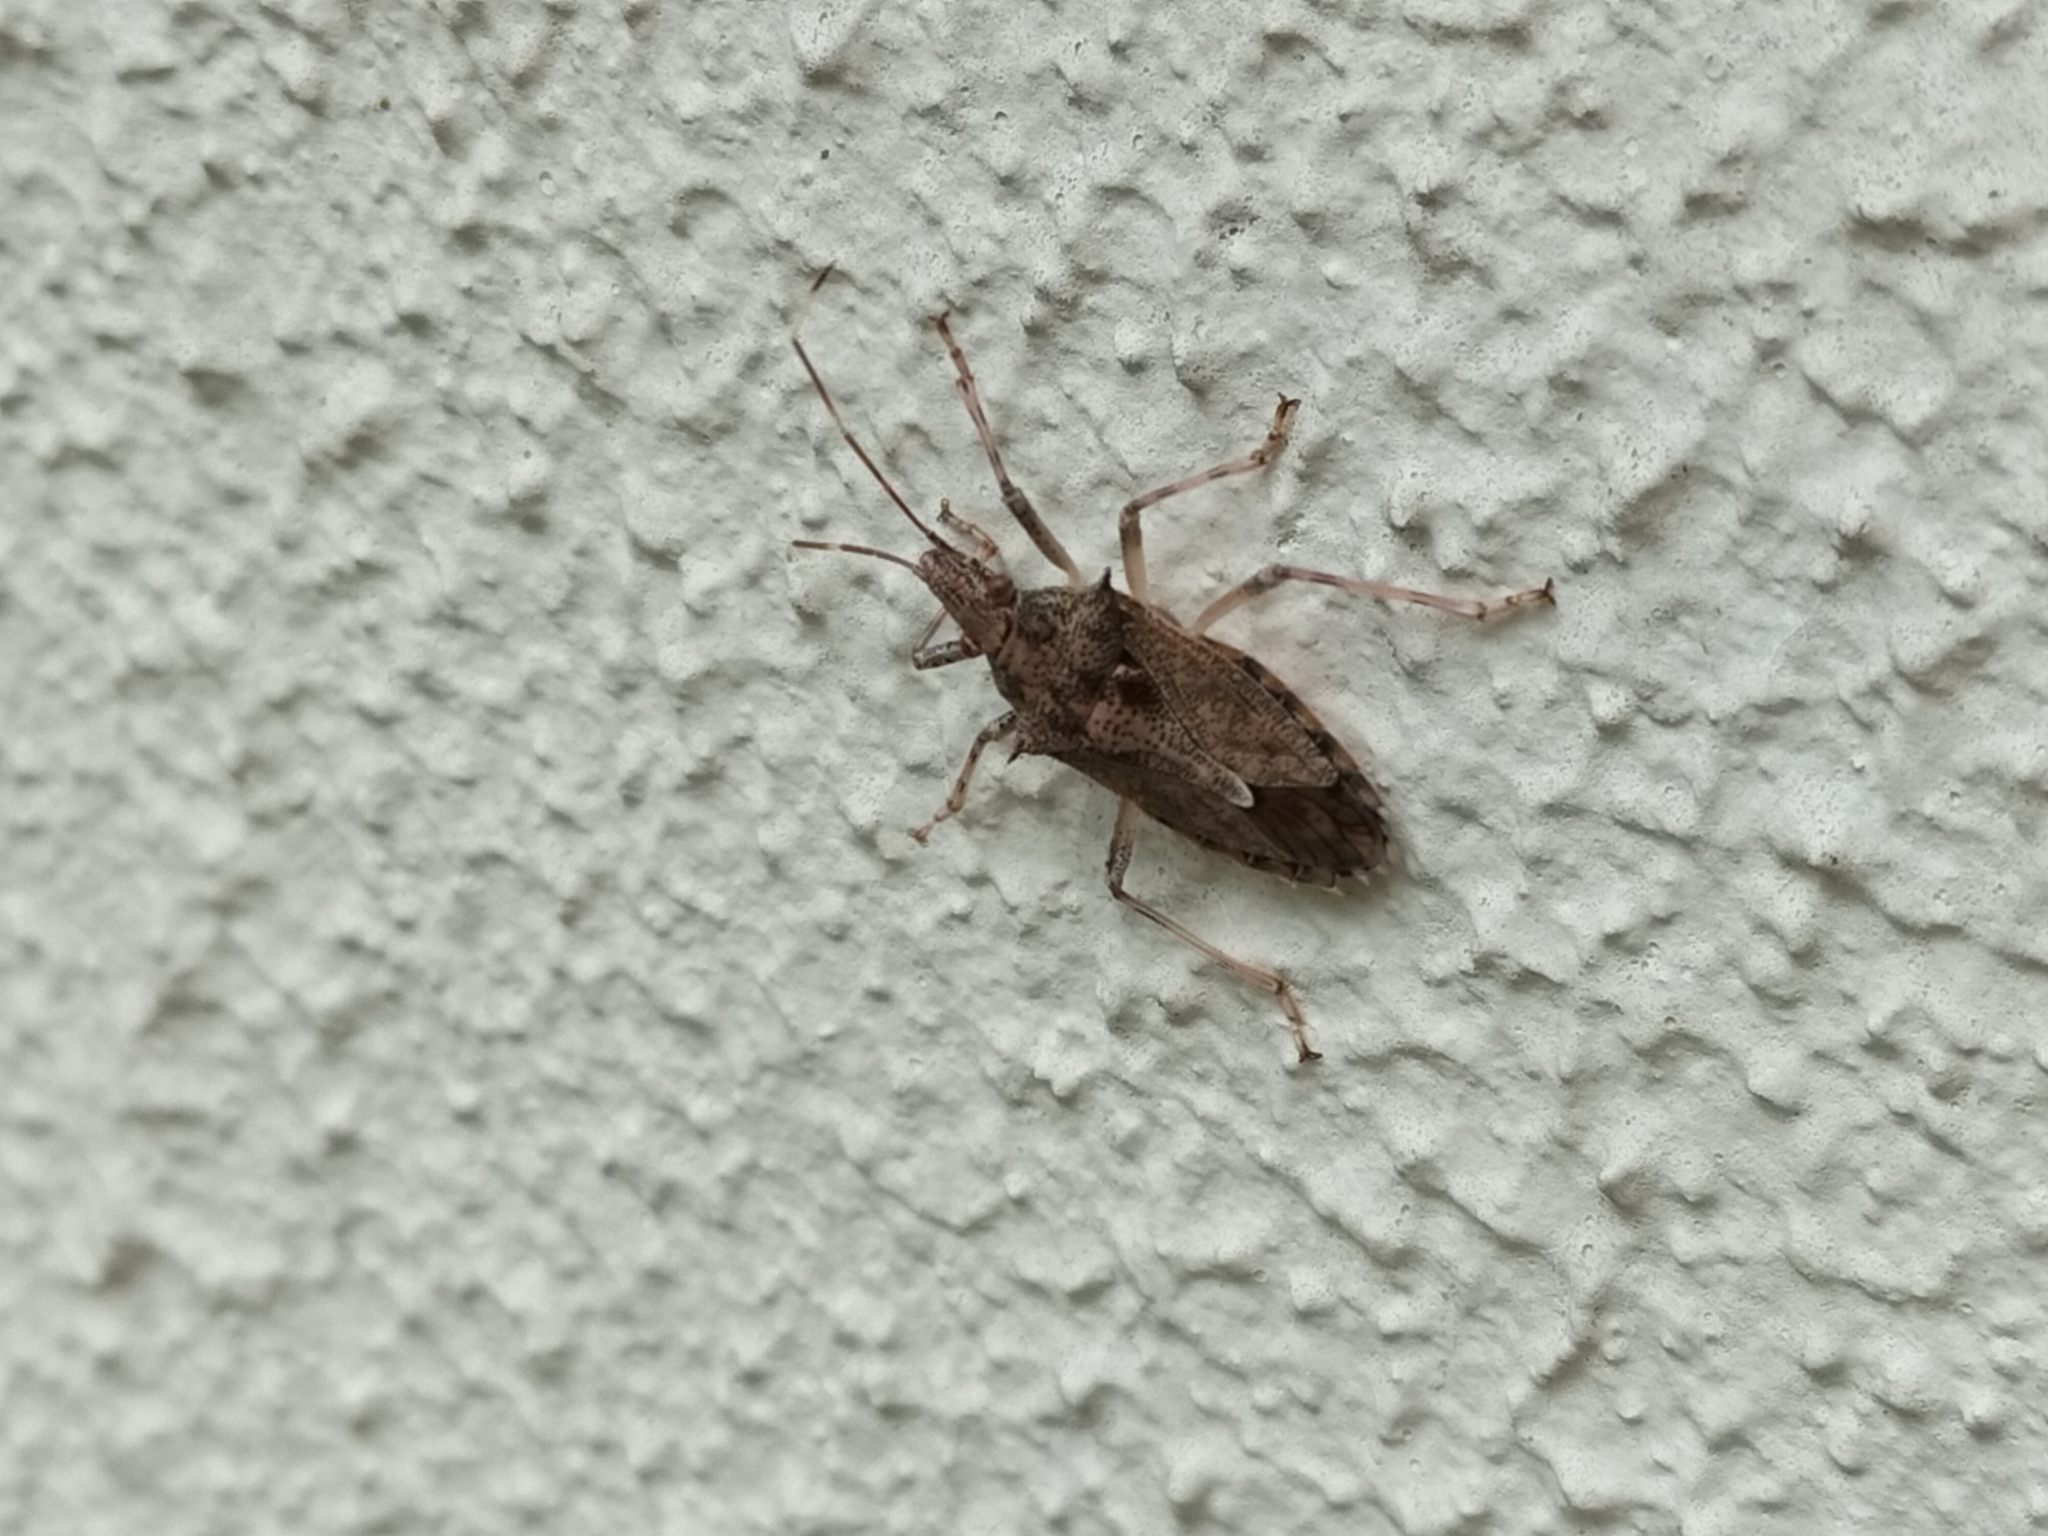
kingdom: Animalia
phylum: Arthropoda
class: Insecta
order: Hemiptera
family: Pentatomidae
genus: Bromocoris
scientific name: Bromocoris
